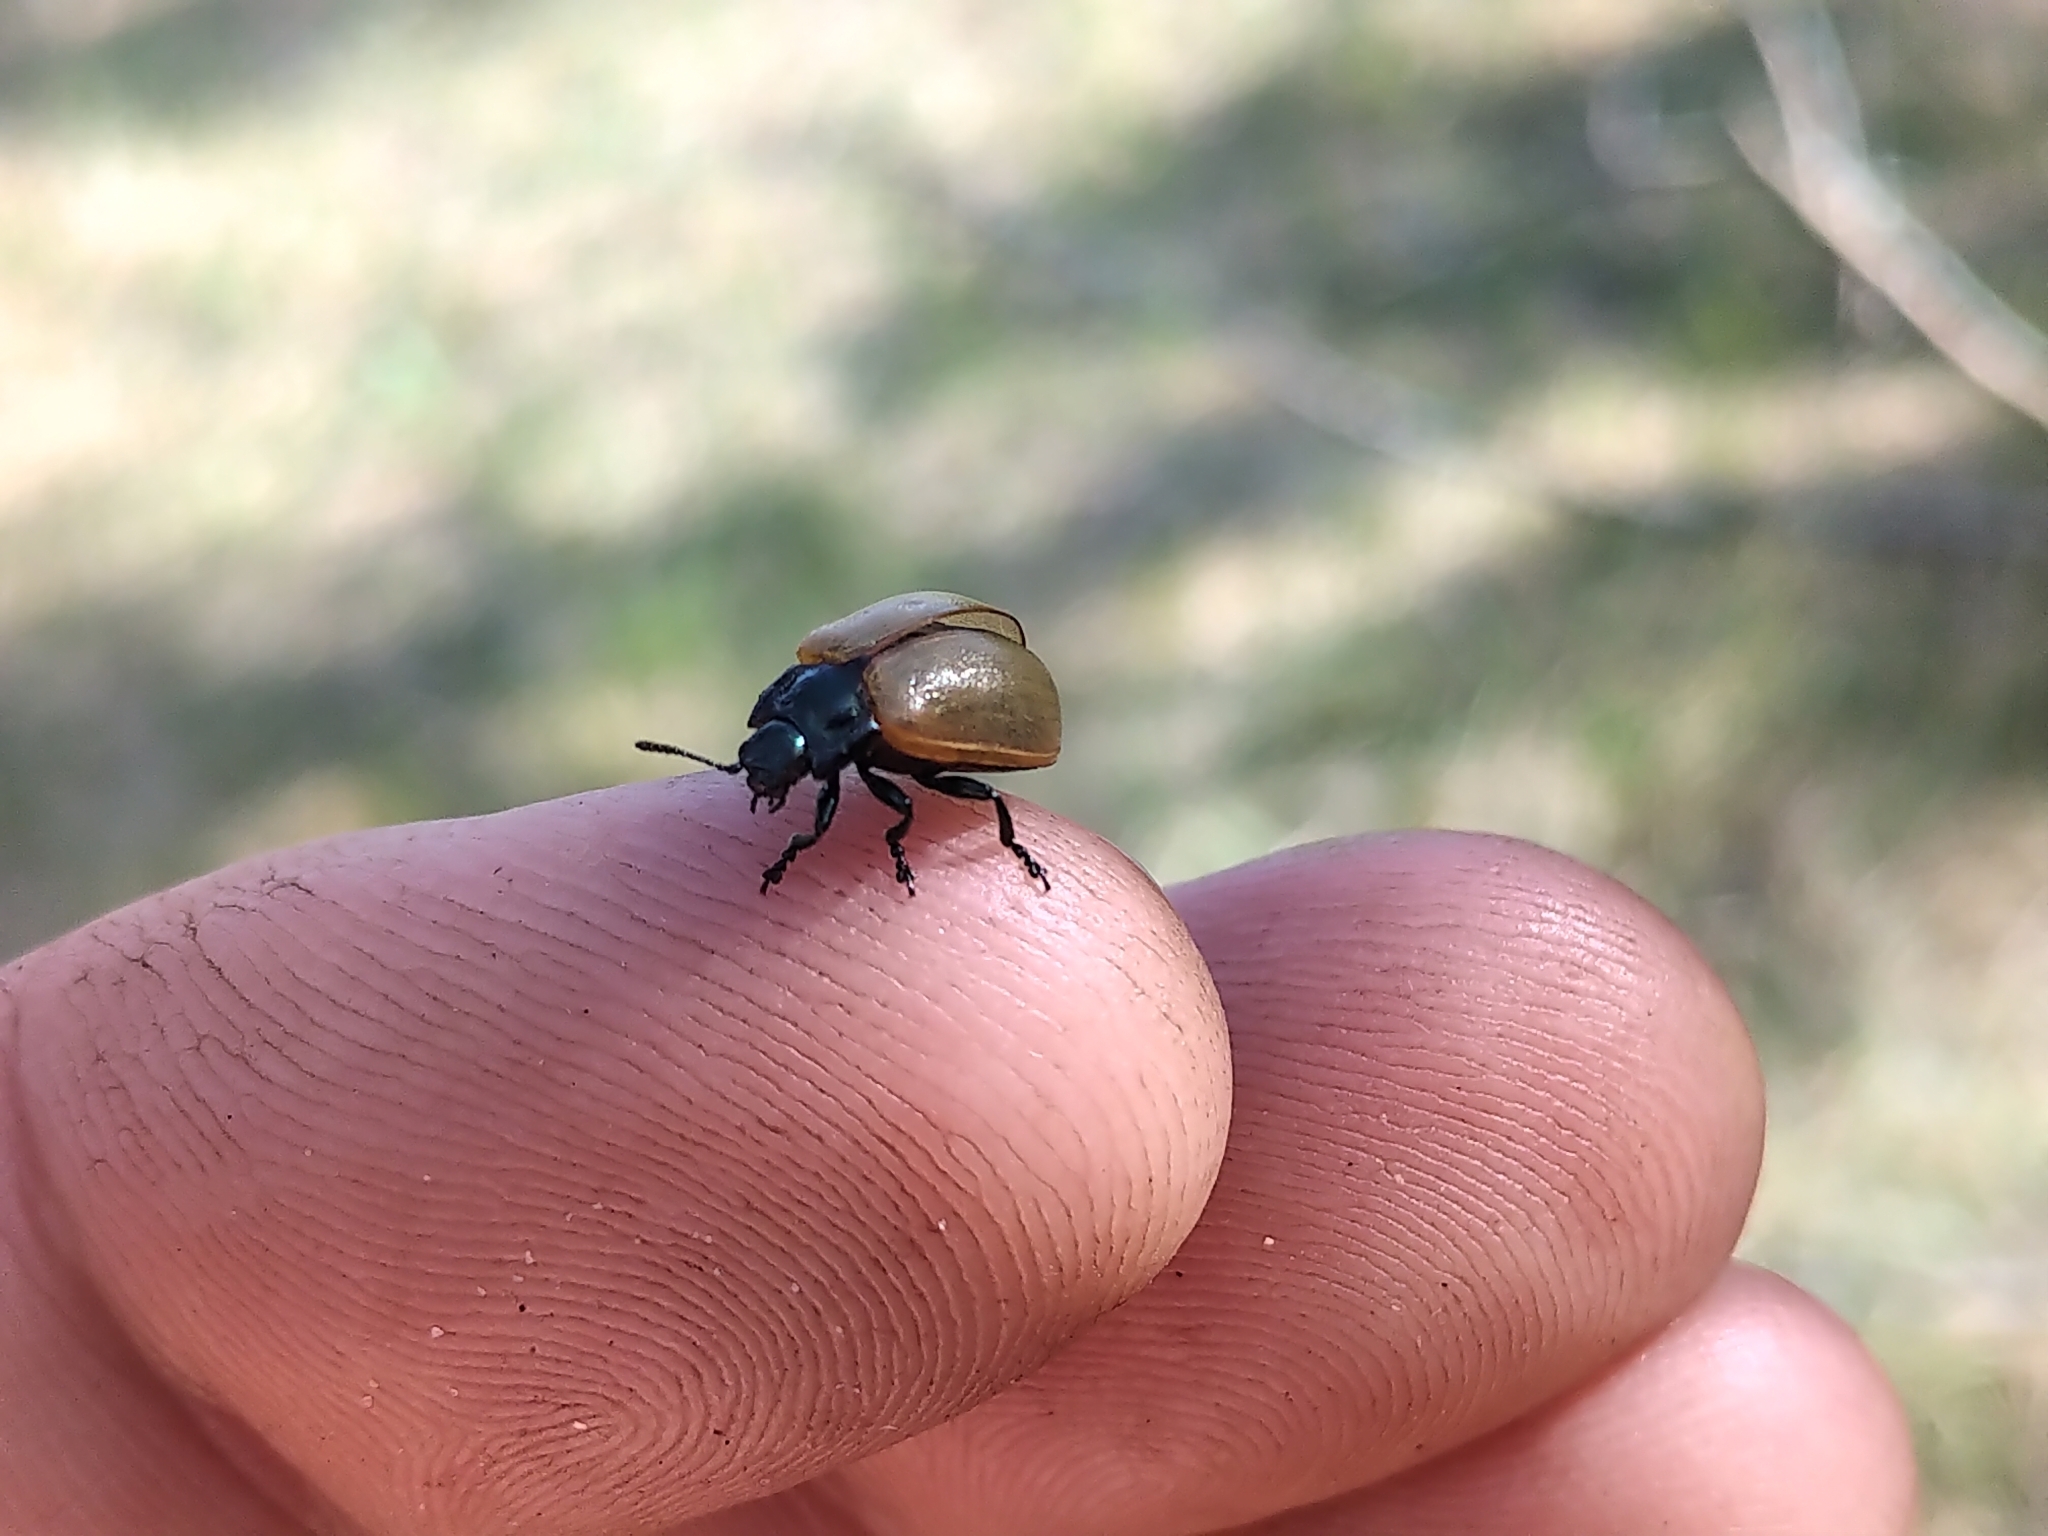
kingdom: Animalia
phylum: Arthropoda
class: Insecta
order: Coleoptera
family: Chrysomelidae
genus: Chrysomela
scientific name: Chrysomela crotchi
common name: Leaf beetle
